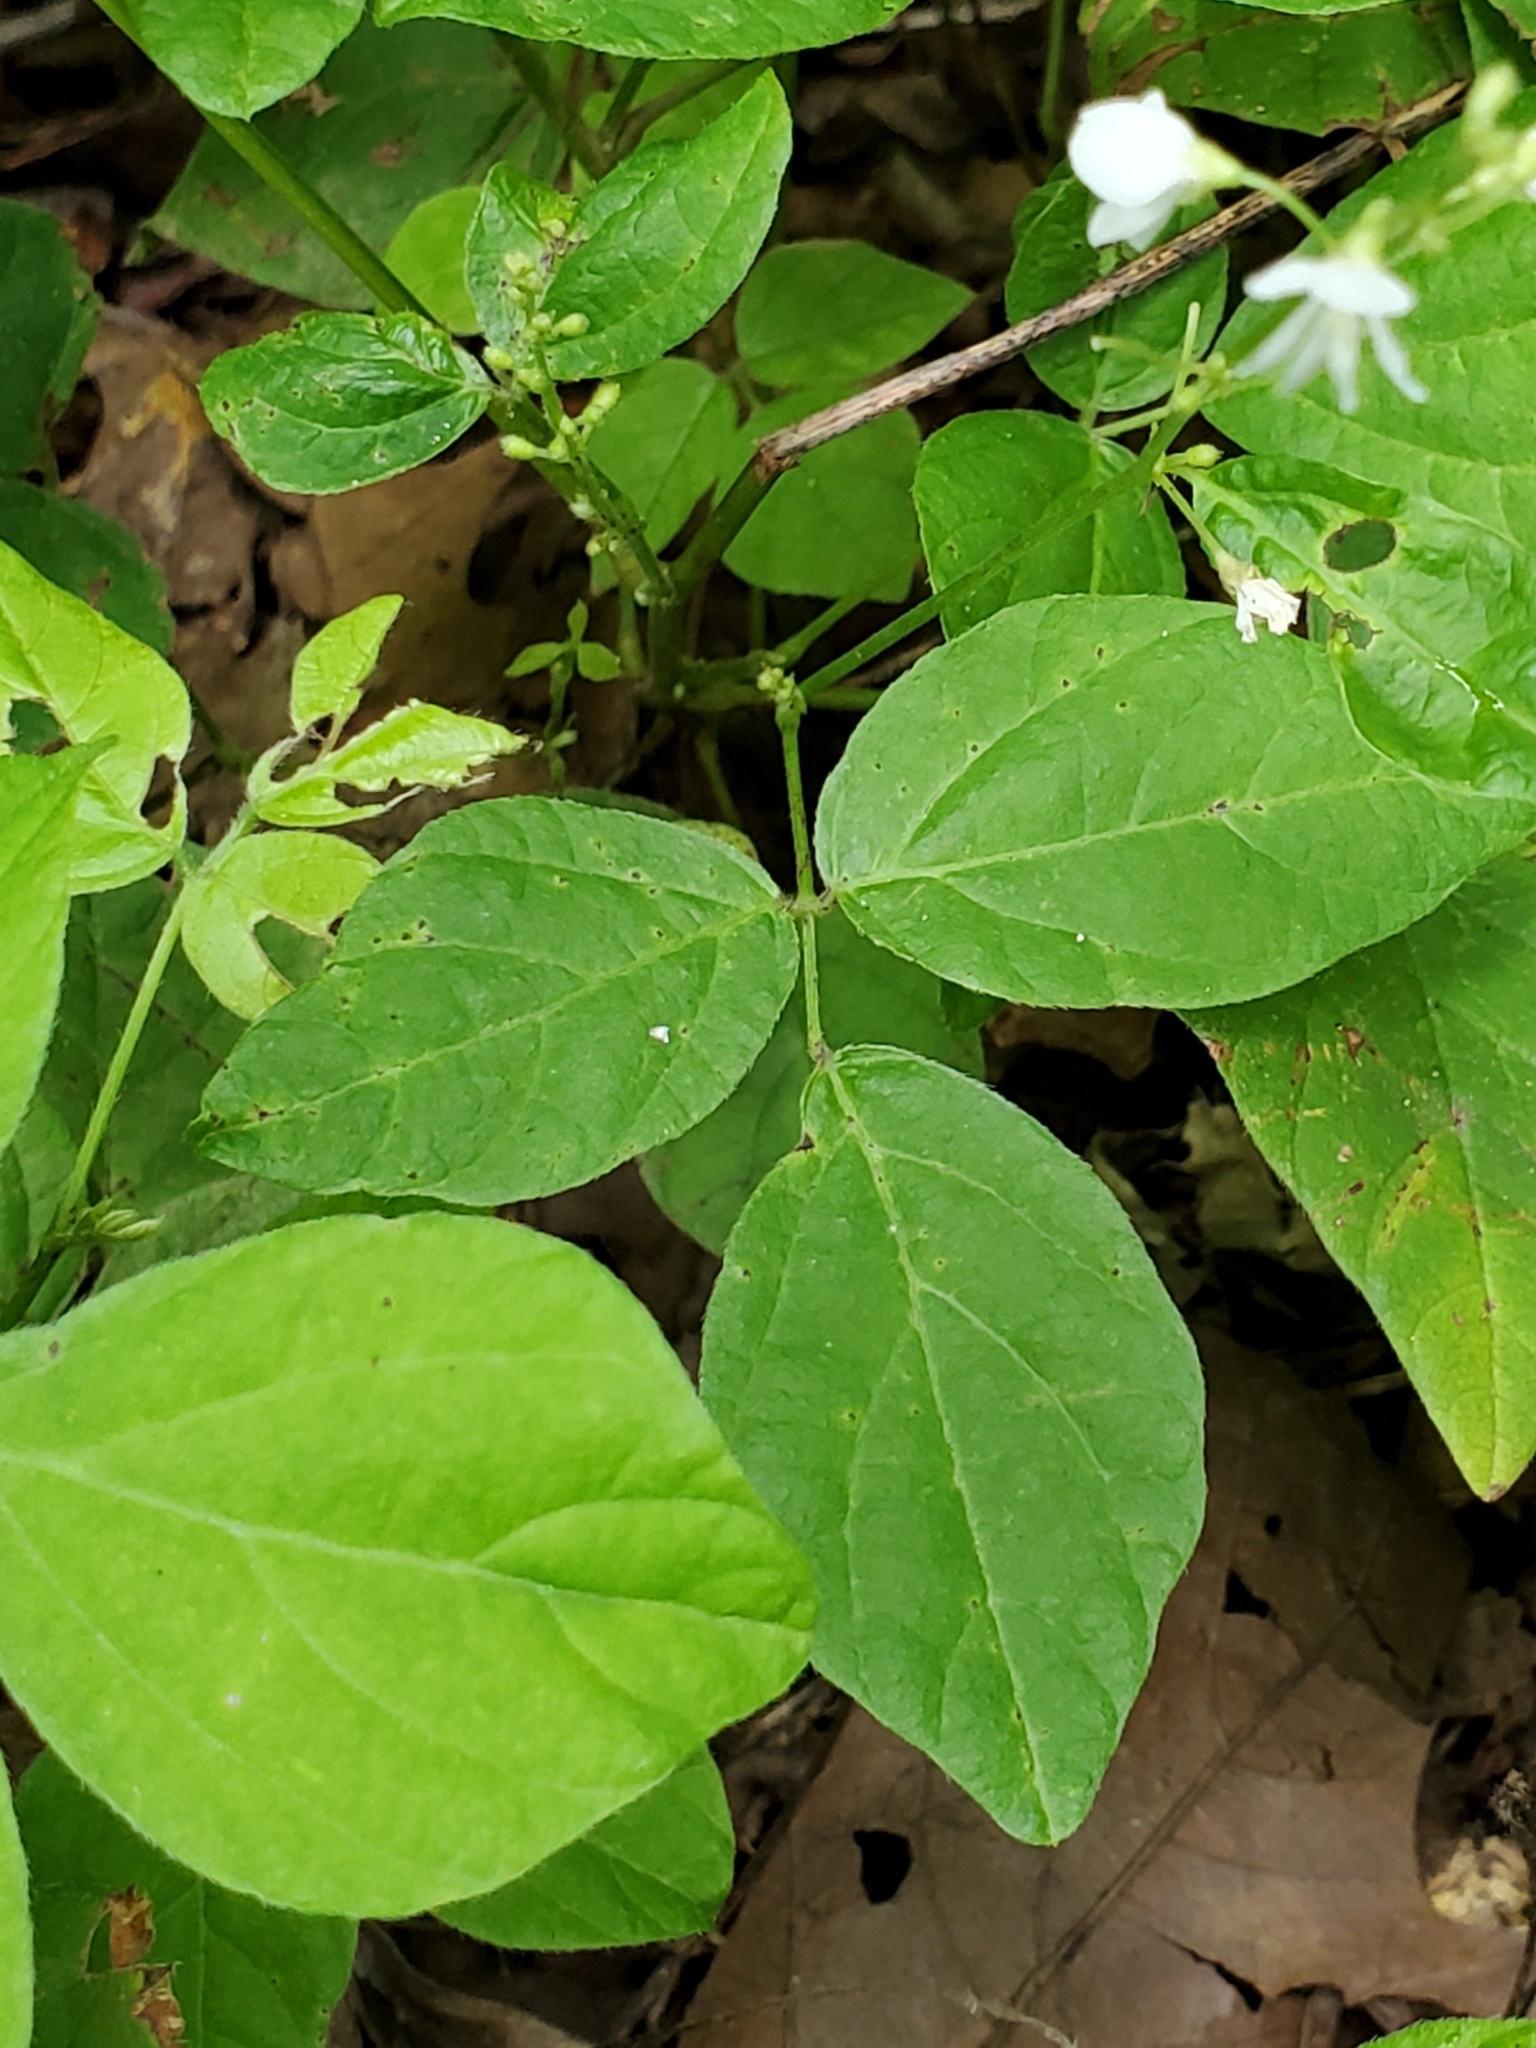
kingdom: Plantae
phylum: Tracheophyta
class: Magnoliopsida
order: Fabales
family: Fabaceae
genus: Hylodesmum
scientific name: Hylodesmum pauciflorum
